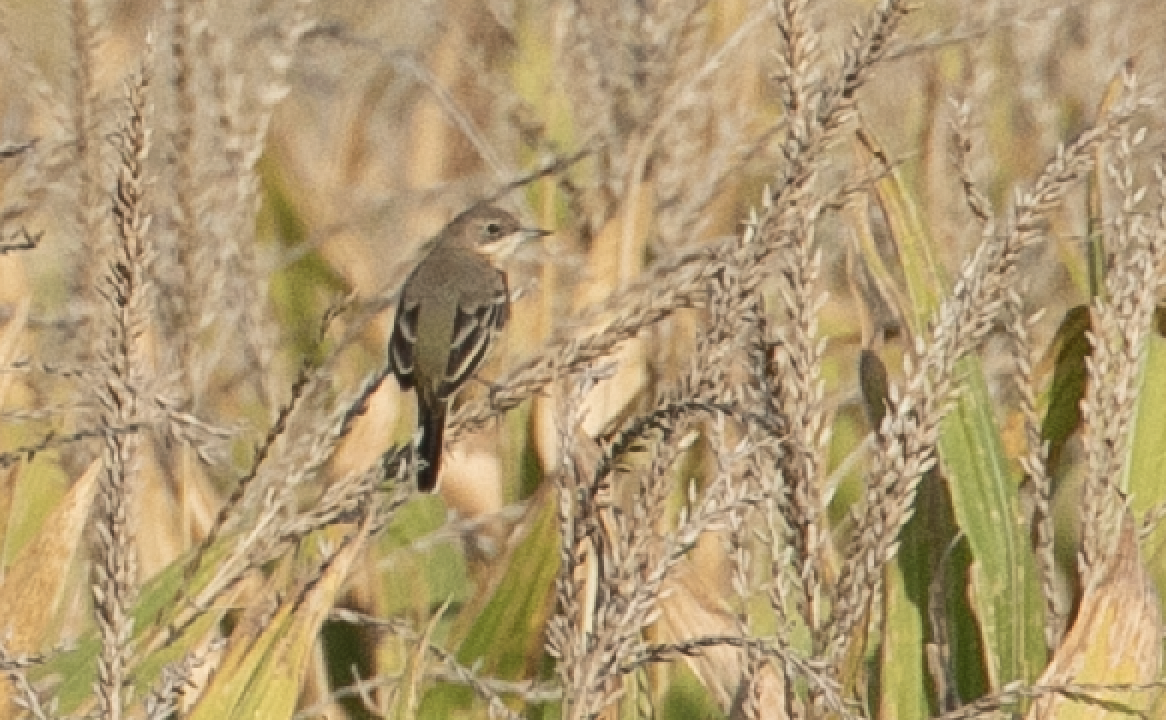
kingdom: Animalia
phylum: Chordata
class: Aves
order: Passeriformes
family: Motacillidae
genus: Motacilla
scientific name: Motacilla flava
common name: Western yellow wagtail
